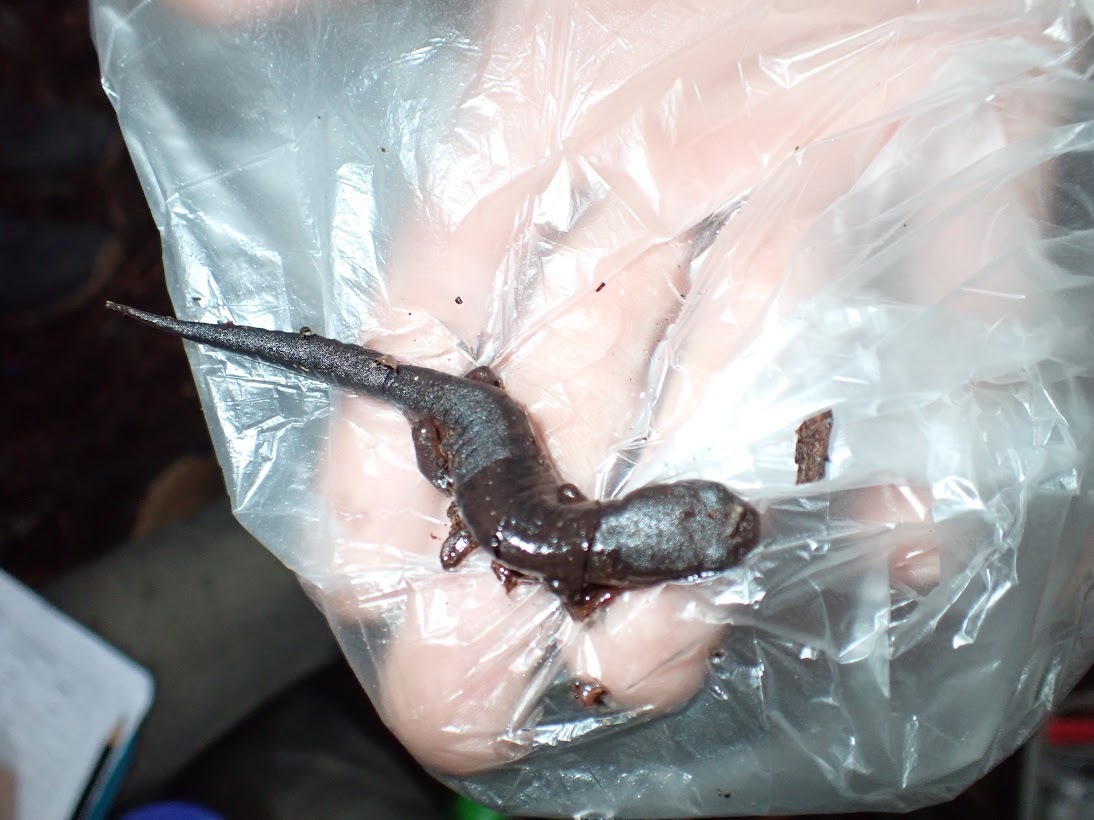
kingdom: Animalia
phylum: Chordata
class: Amphibia
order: Caudata
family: Plethodontidae
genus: Bolitoglossa
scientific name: Bolitoglossa diaphora
